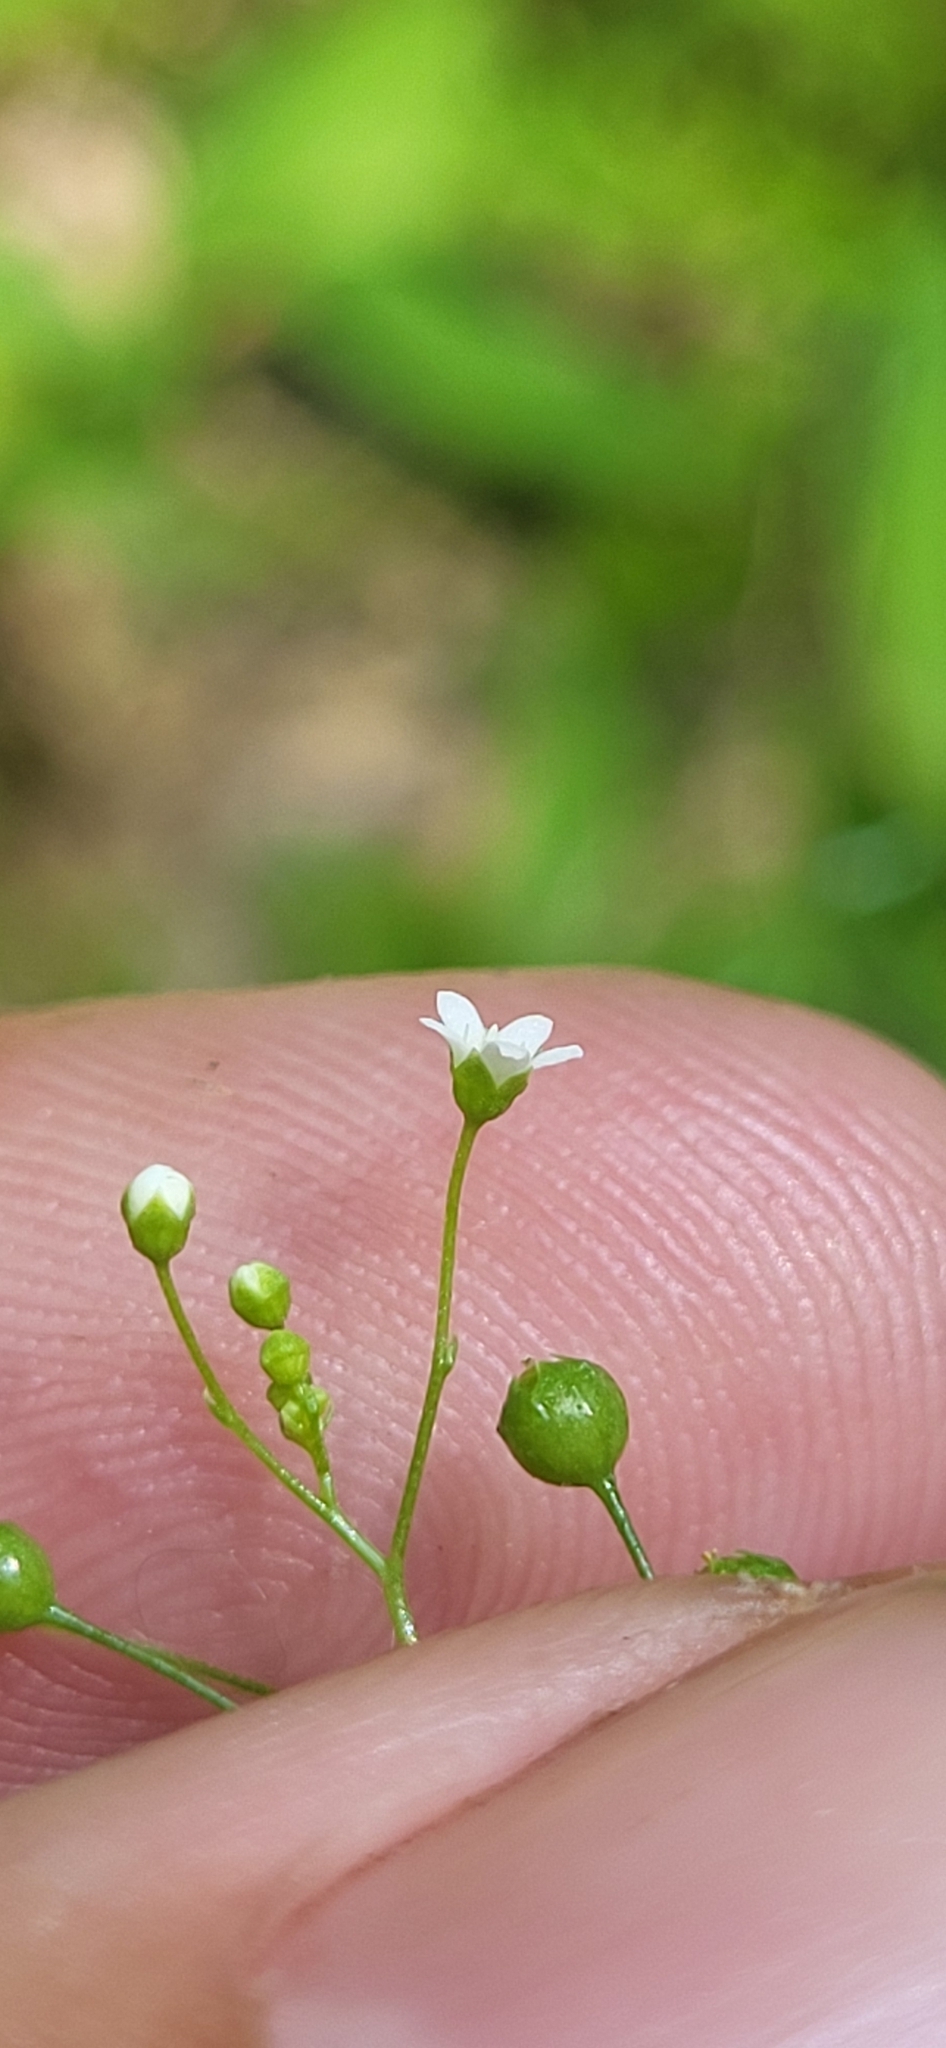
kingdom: Plantae
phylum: Tracheophyta
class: Magnoliopsida
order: Ericales
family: Primulaceae
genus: Samolus
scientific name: Samolus parviflorus
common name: False water pimpernel
